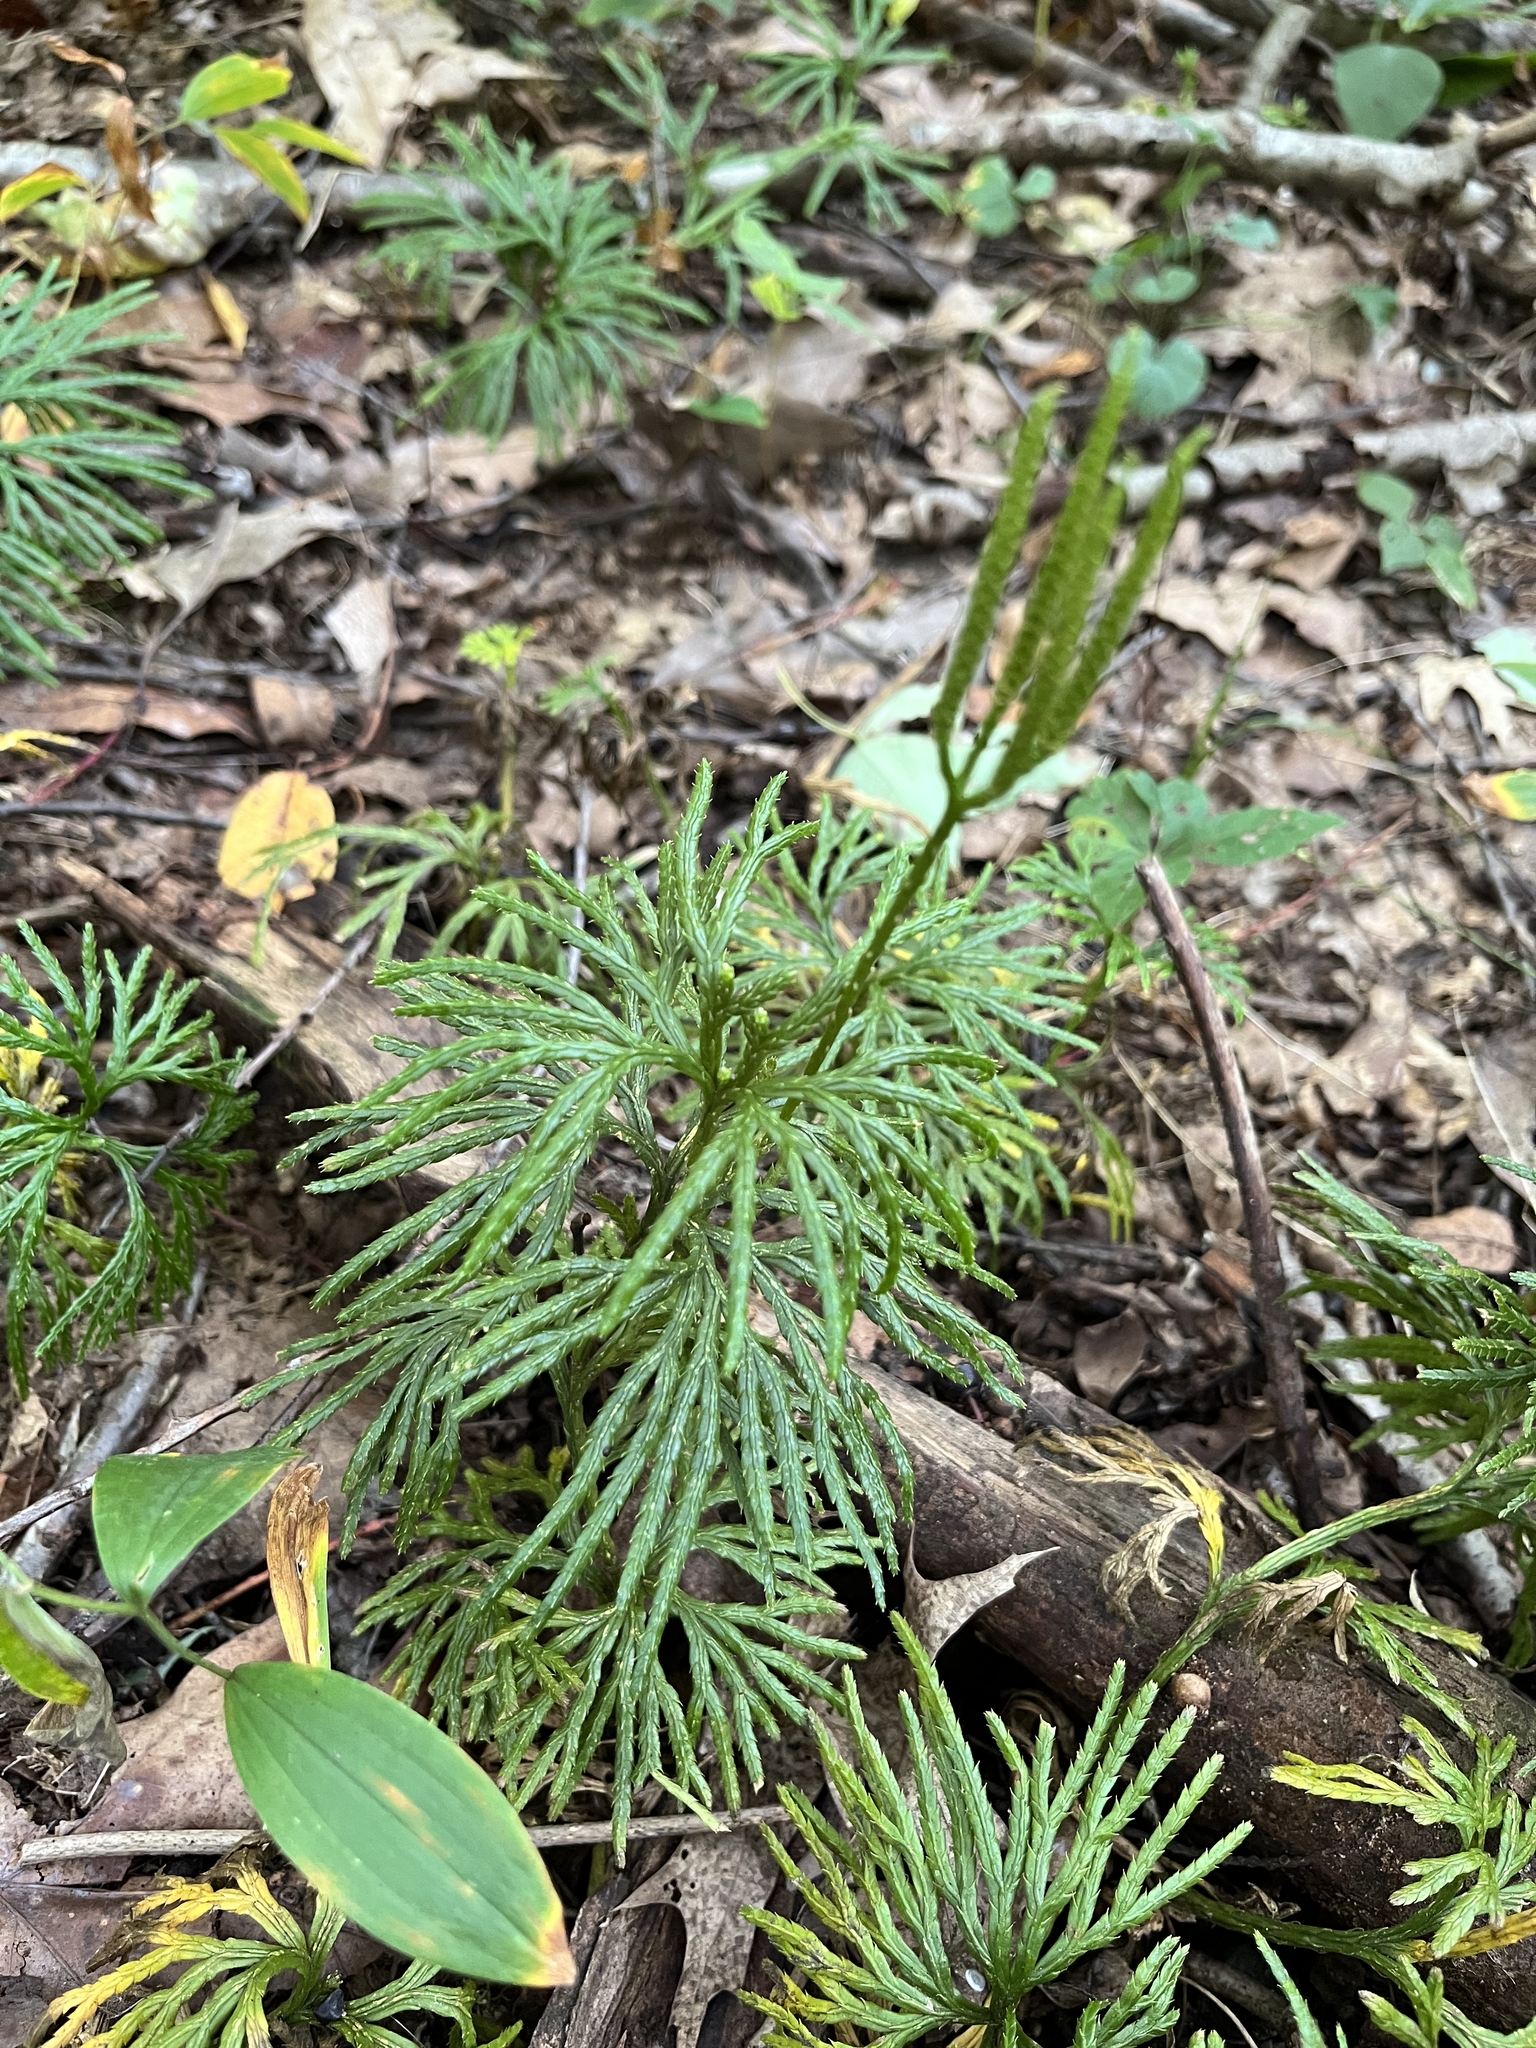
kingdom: Plantae
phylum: Tracheophyta
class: Lycopodiopsida
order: Lycopodiales
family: Lycopodiaceae
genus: Diphasiastrum
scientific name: Diphasiastrum digitatum
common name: Southern running-pine
